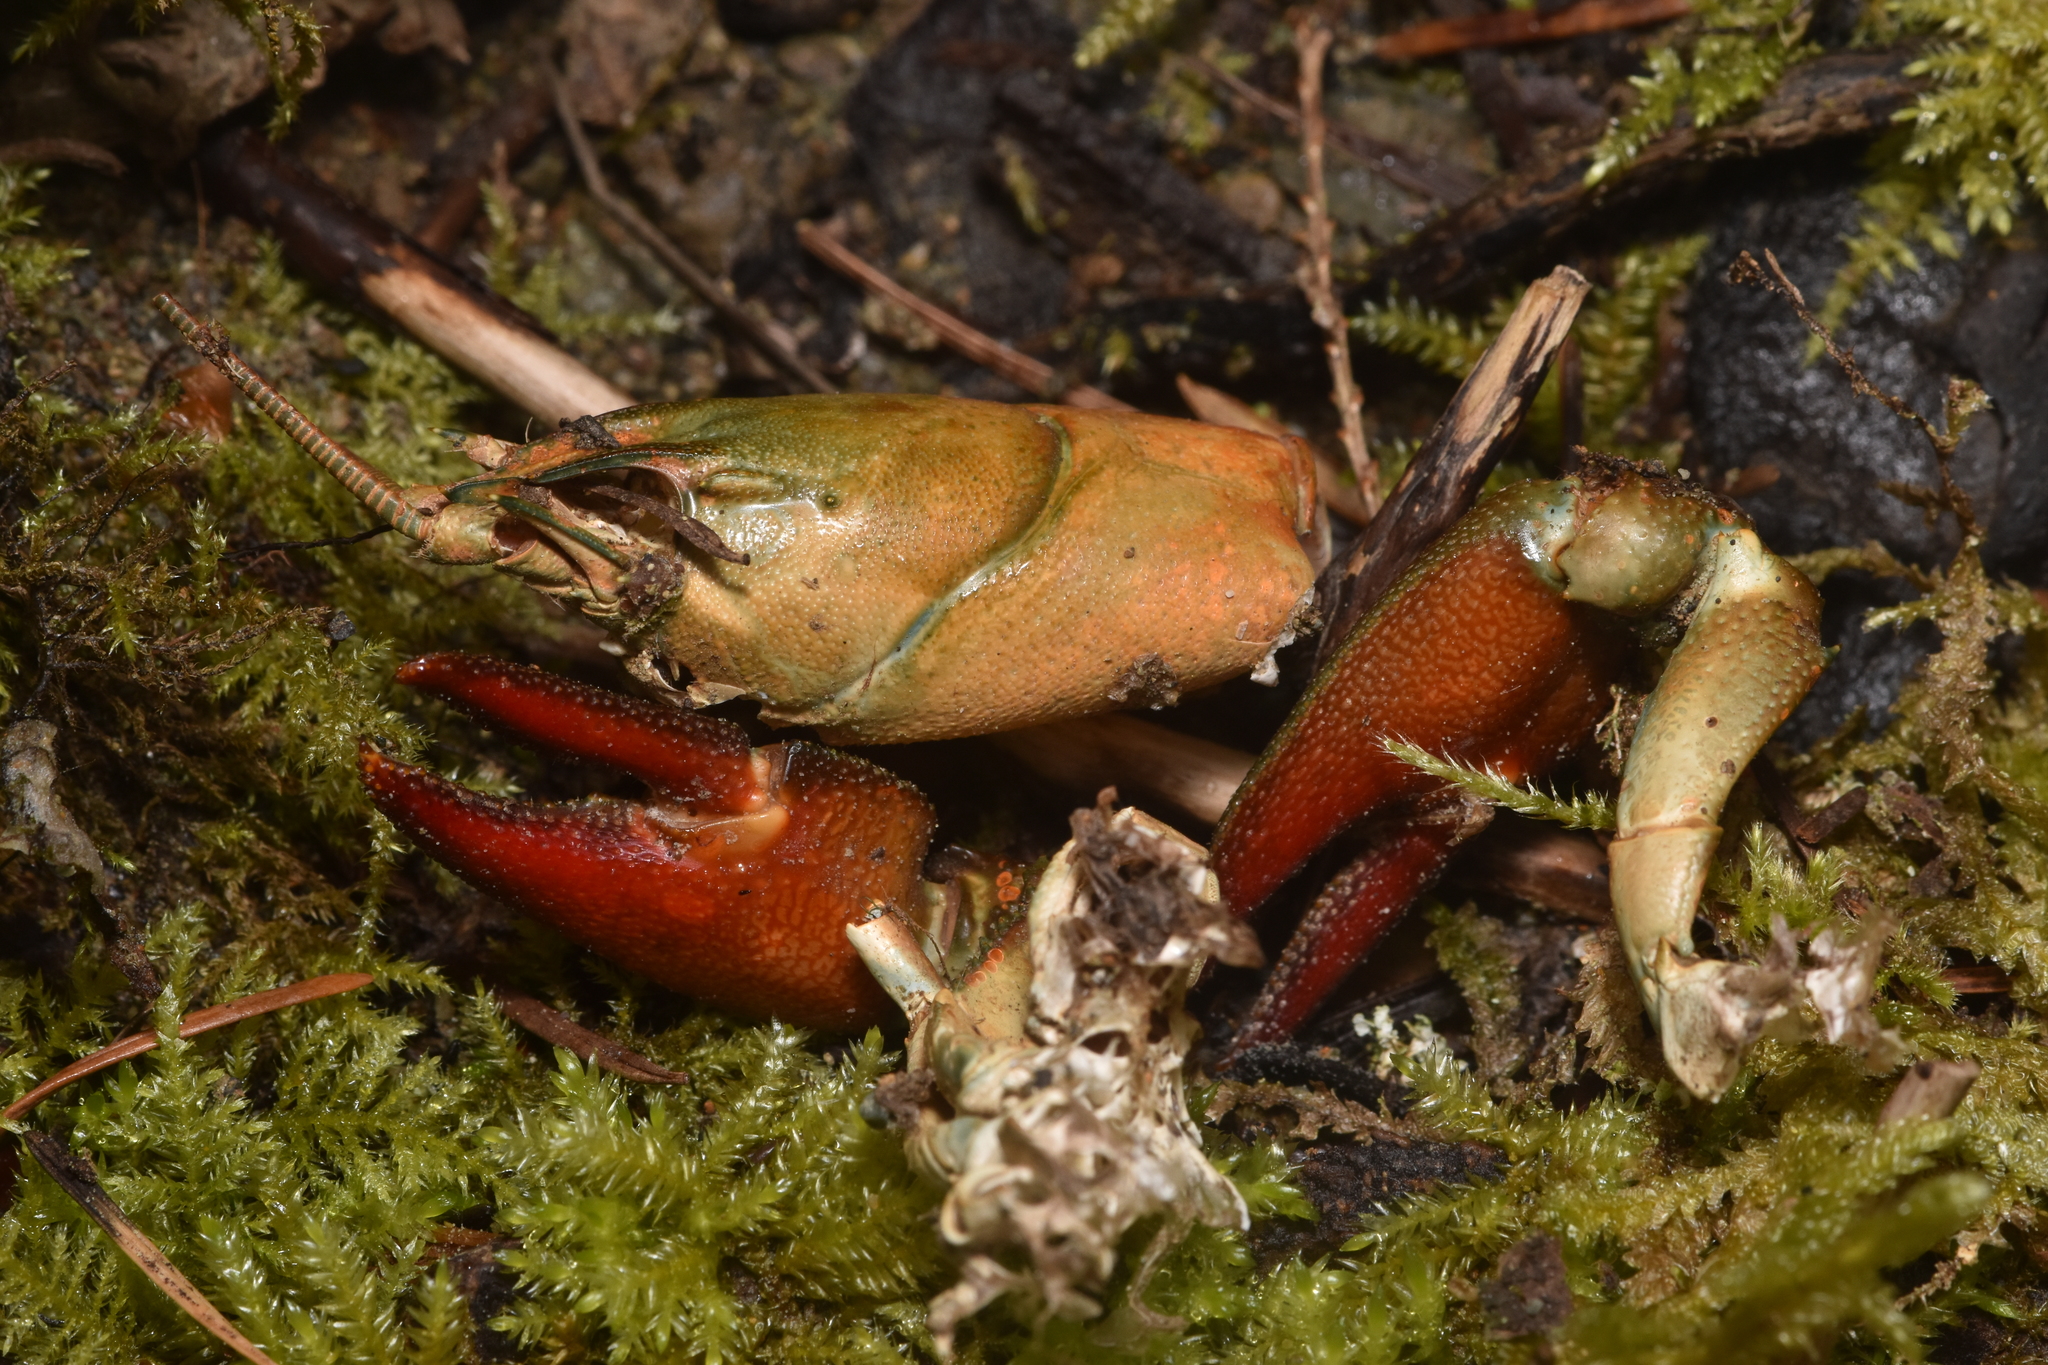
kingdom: Animalia
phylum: Arthropoda
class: Malacostraca
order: Decapoda
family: Astacidae
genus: Pacifastacus
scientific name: Pacifastacus leniusculus
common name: Signal crayfish
